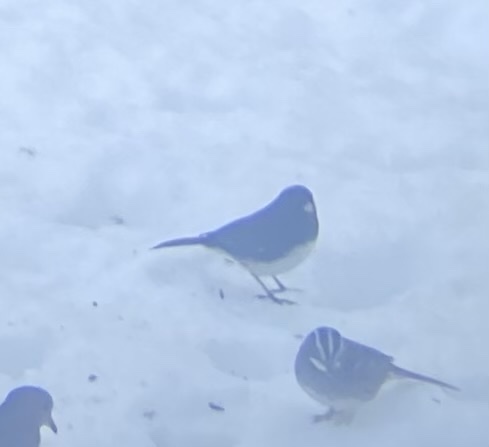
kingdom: Animalia
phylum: Chordata
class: Aves
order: Passeriformes
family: Passerellidae
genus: Junco
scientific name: Junco hyemalis
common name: Dark-eyed junco
